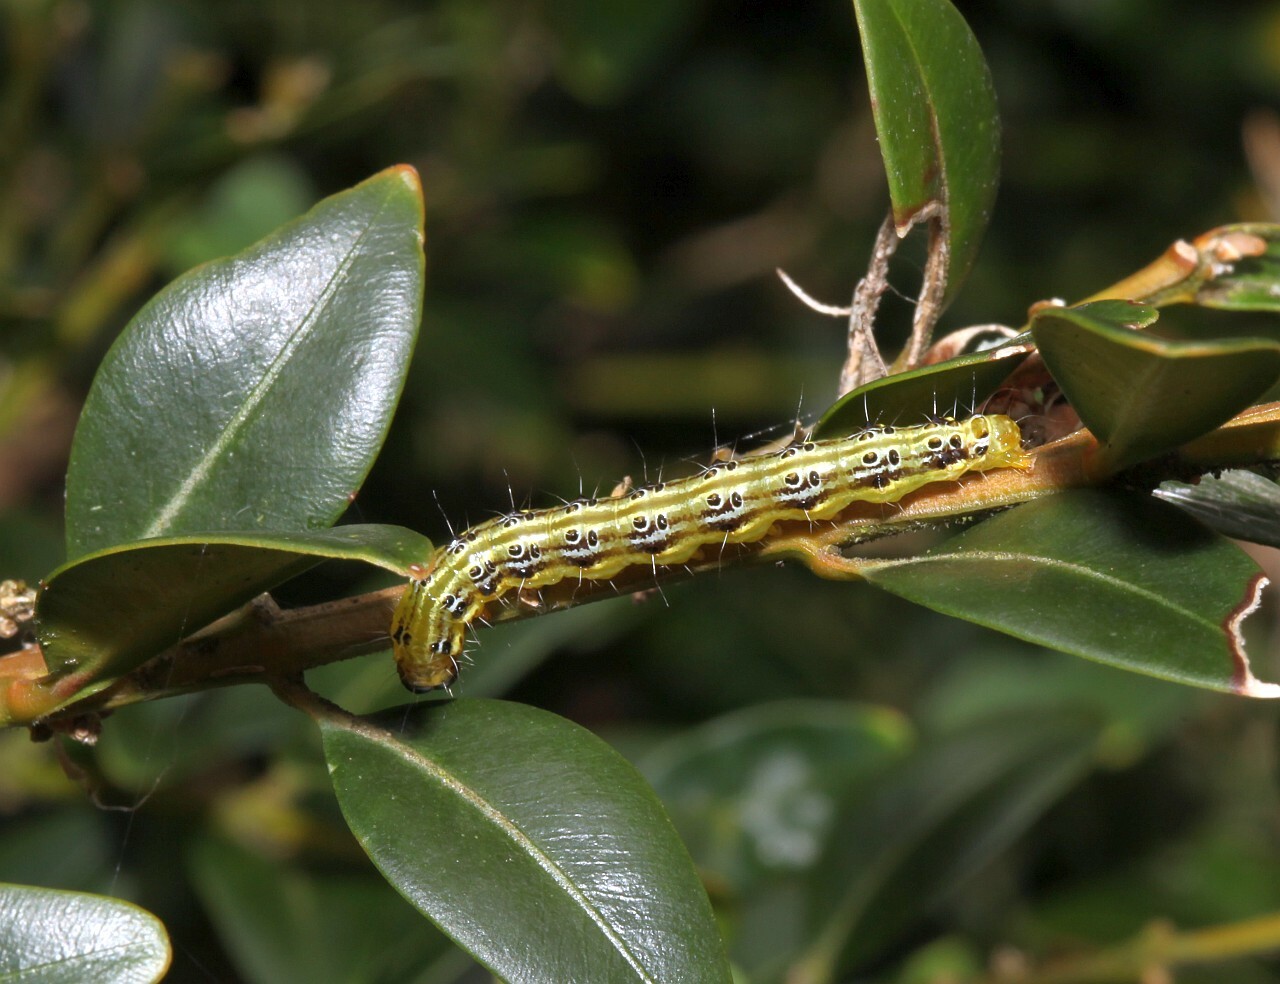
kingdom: Animalia
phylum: Arthropoda
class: Insecta
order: Lepidoptera
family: Crambidae
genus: Cydalima
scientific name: Cydalima perspectalis
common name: Box tree moth
